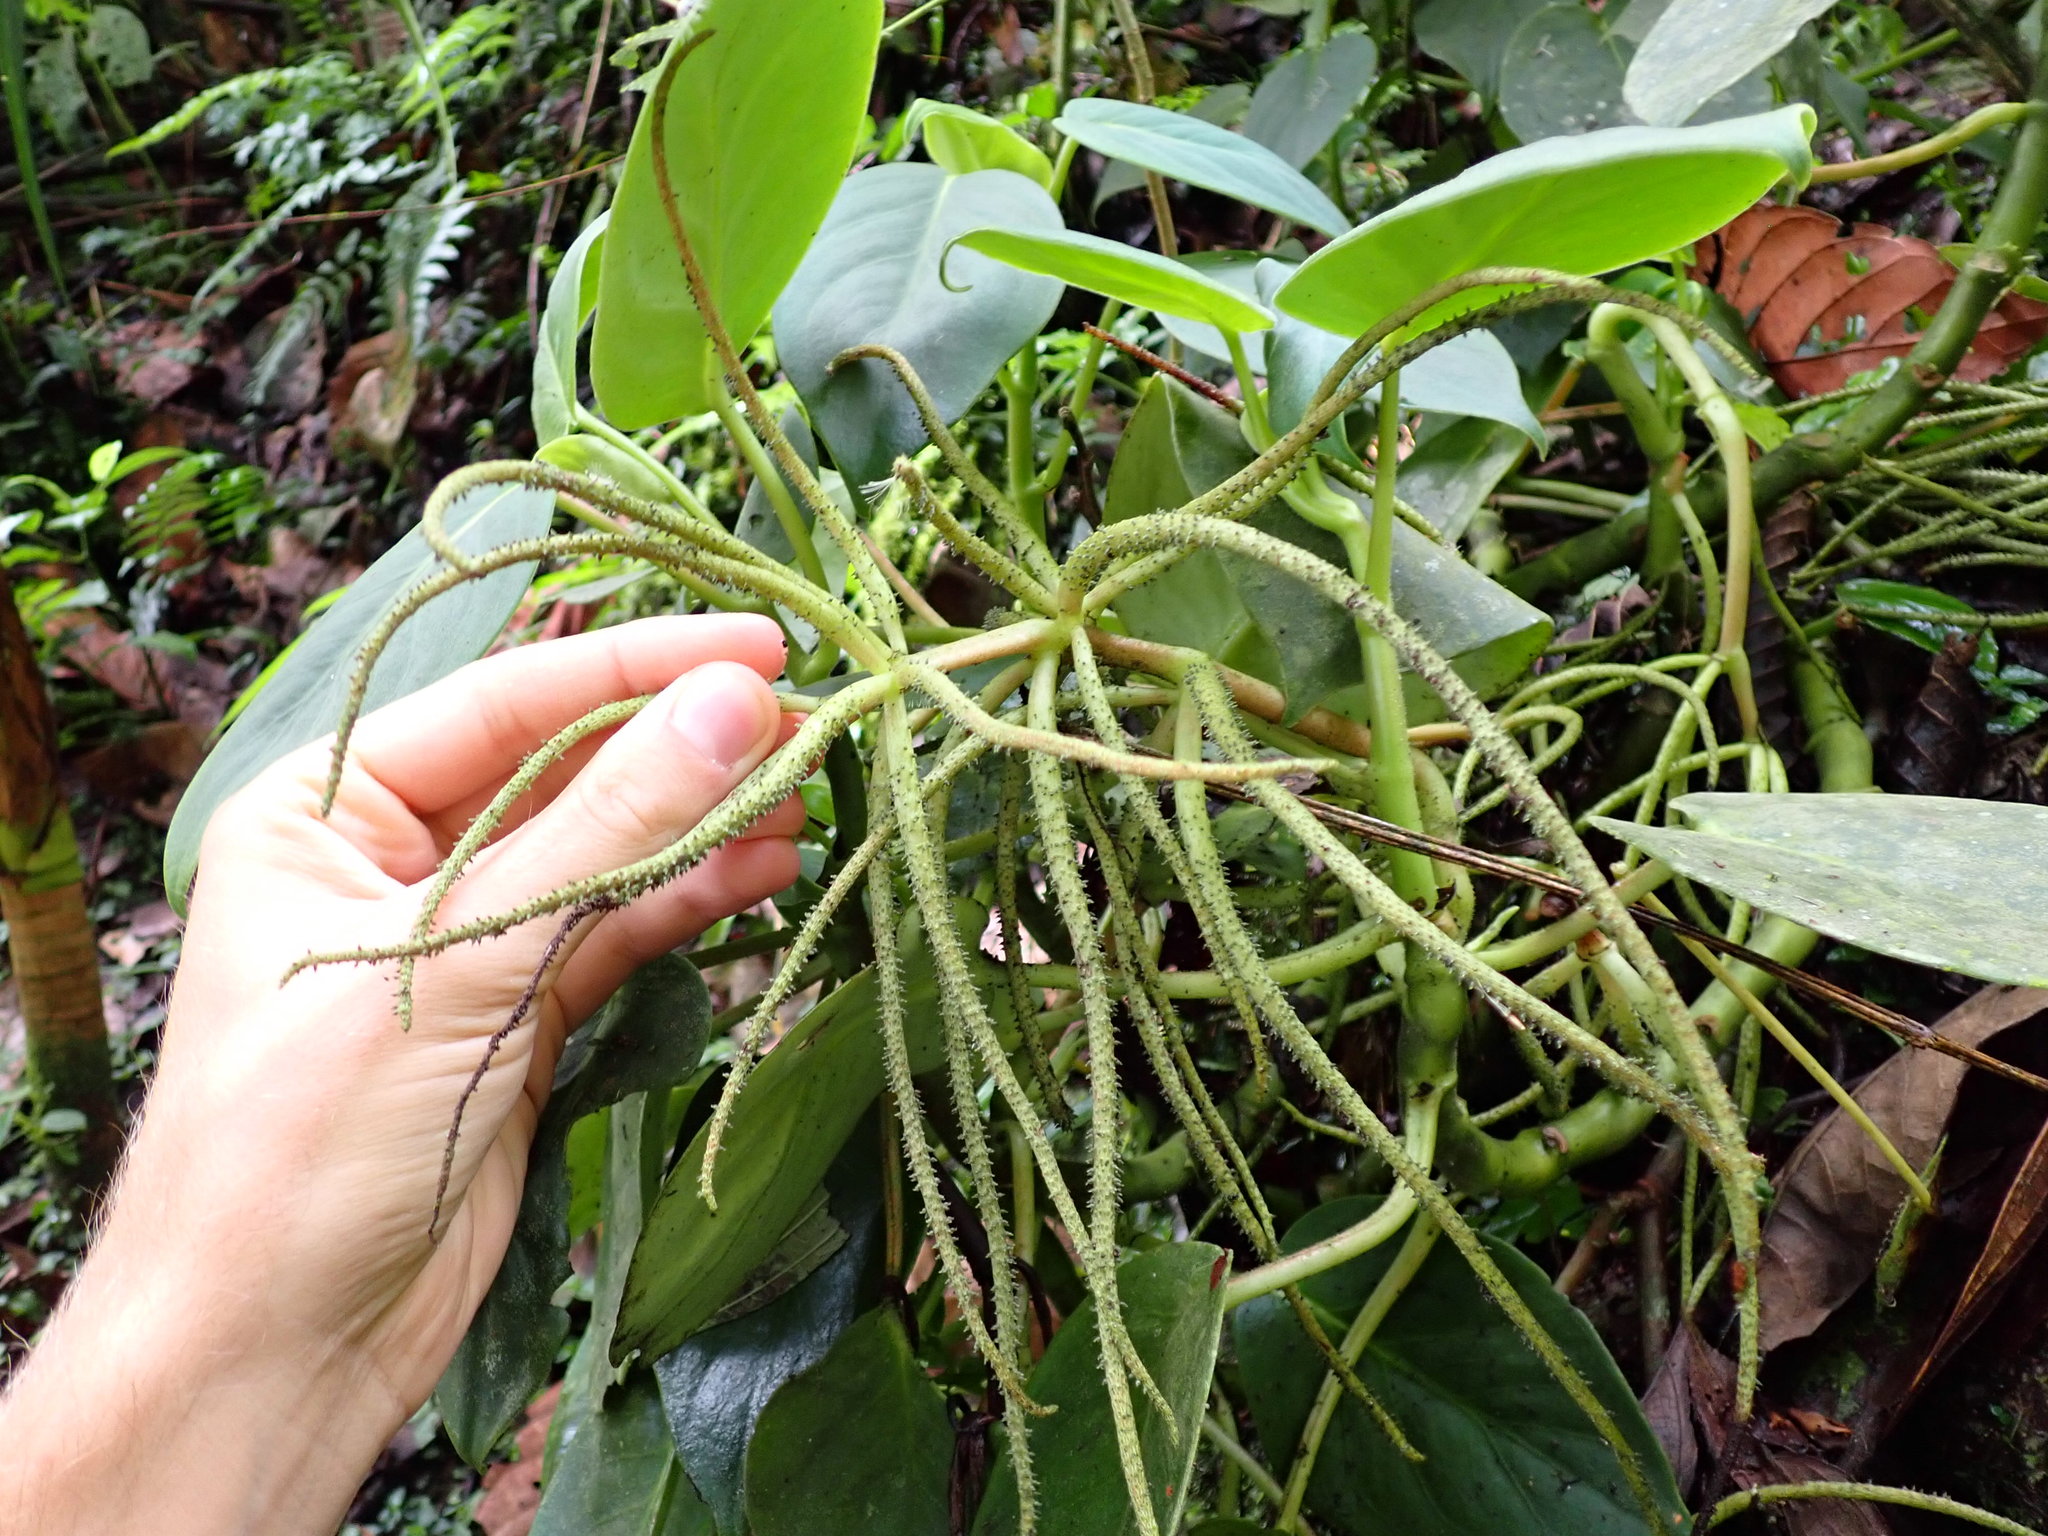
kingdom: Plantae
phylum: Tracheophyta
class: Magnoliopsida
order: Piperales
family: Piperaceae
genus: Peperomia
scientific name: Peperomia striata
